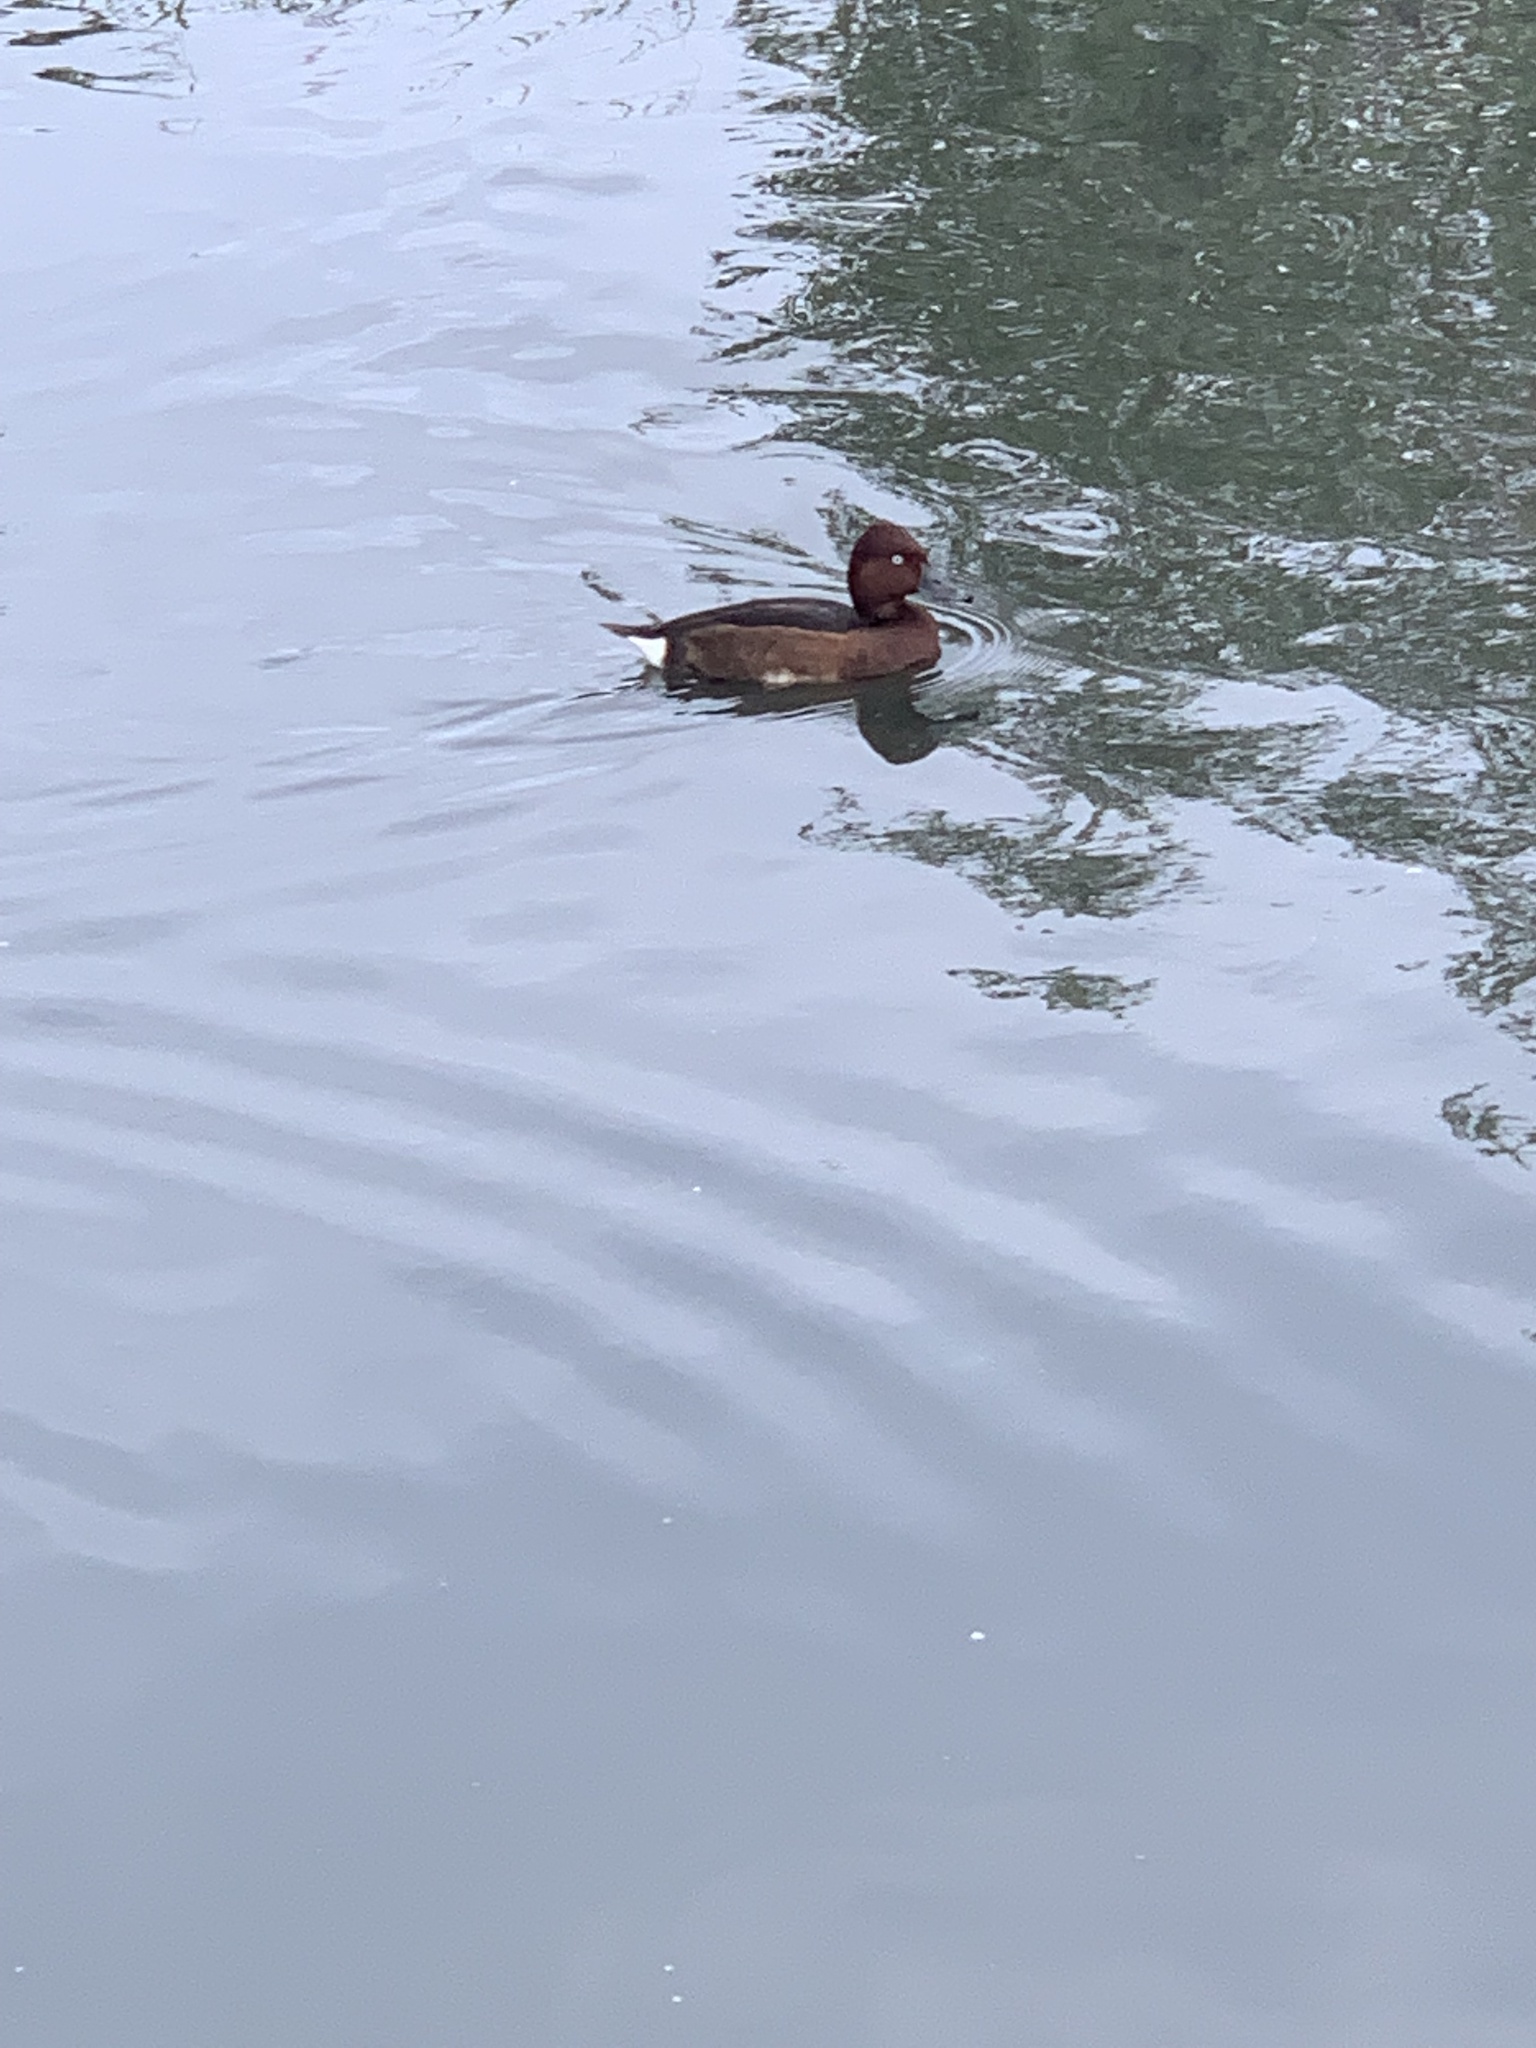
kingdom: Animalia
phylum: Chordata
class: Aves
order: Anseriformes
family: Anatidae
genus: Aythya
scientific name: Aythya nyroca
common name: Ferruginous duck
